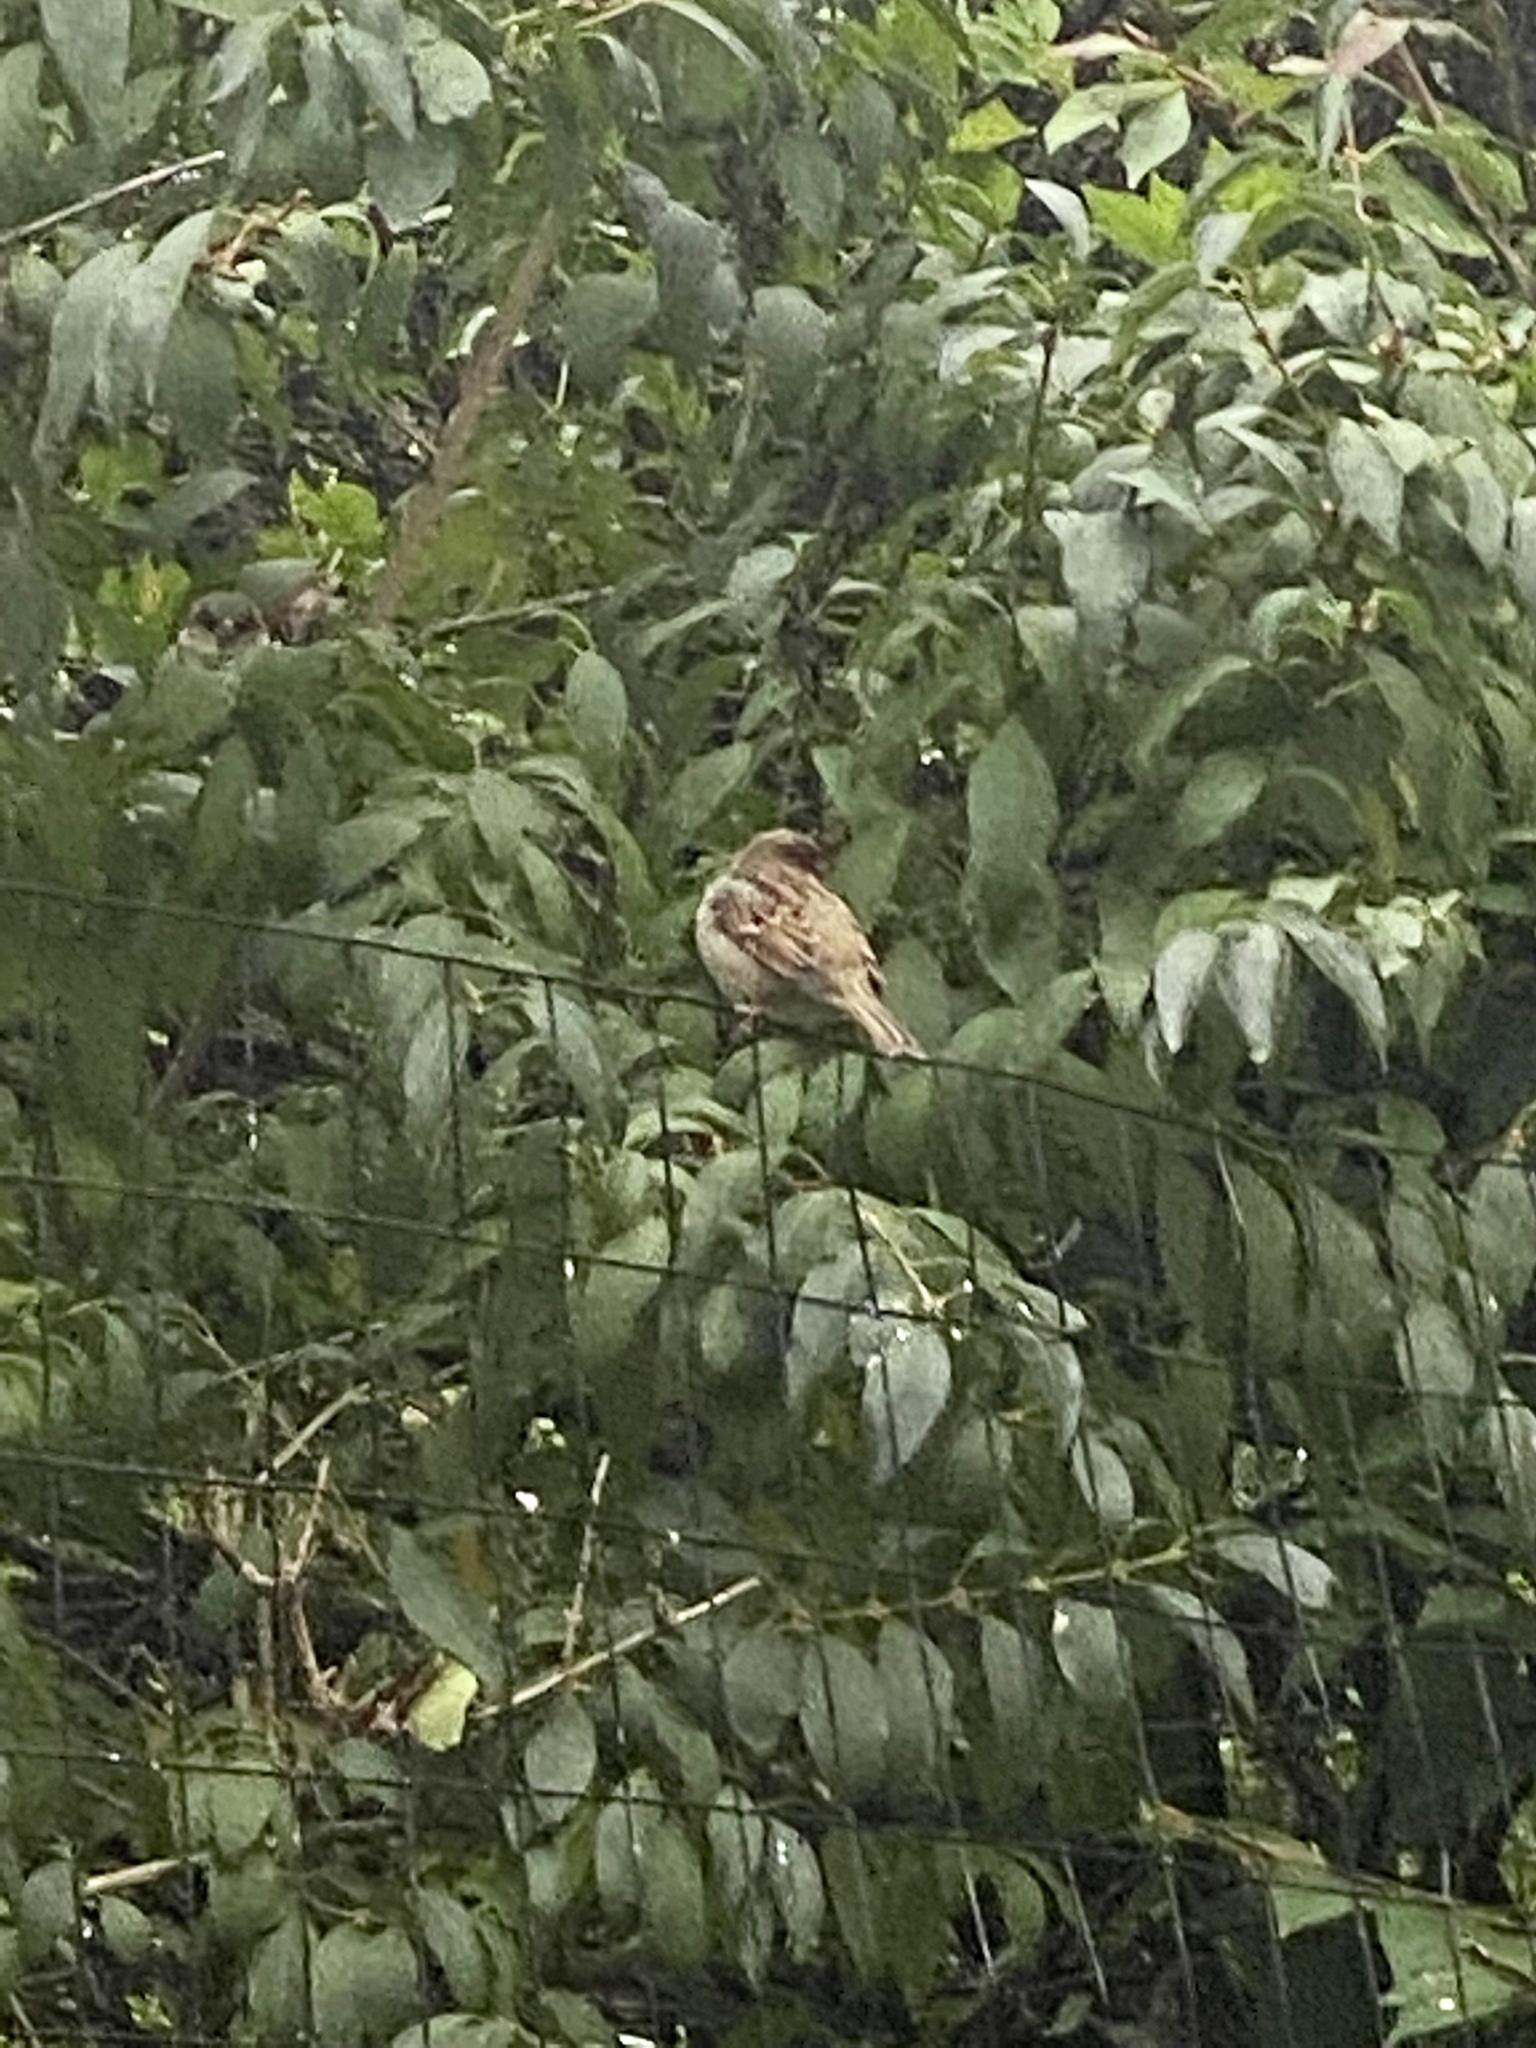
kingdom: Animalia
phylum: Chordata
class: Aves
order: Passeriformes
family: Passeridae
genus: Passer
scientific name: Passer domesticus
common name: House sparrow
